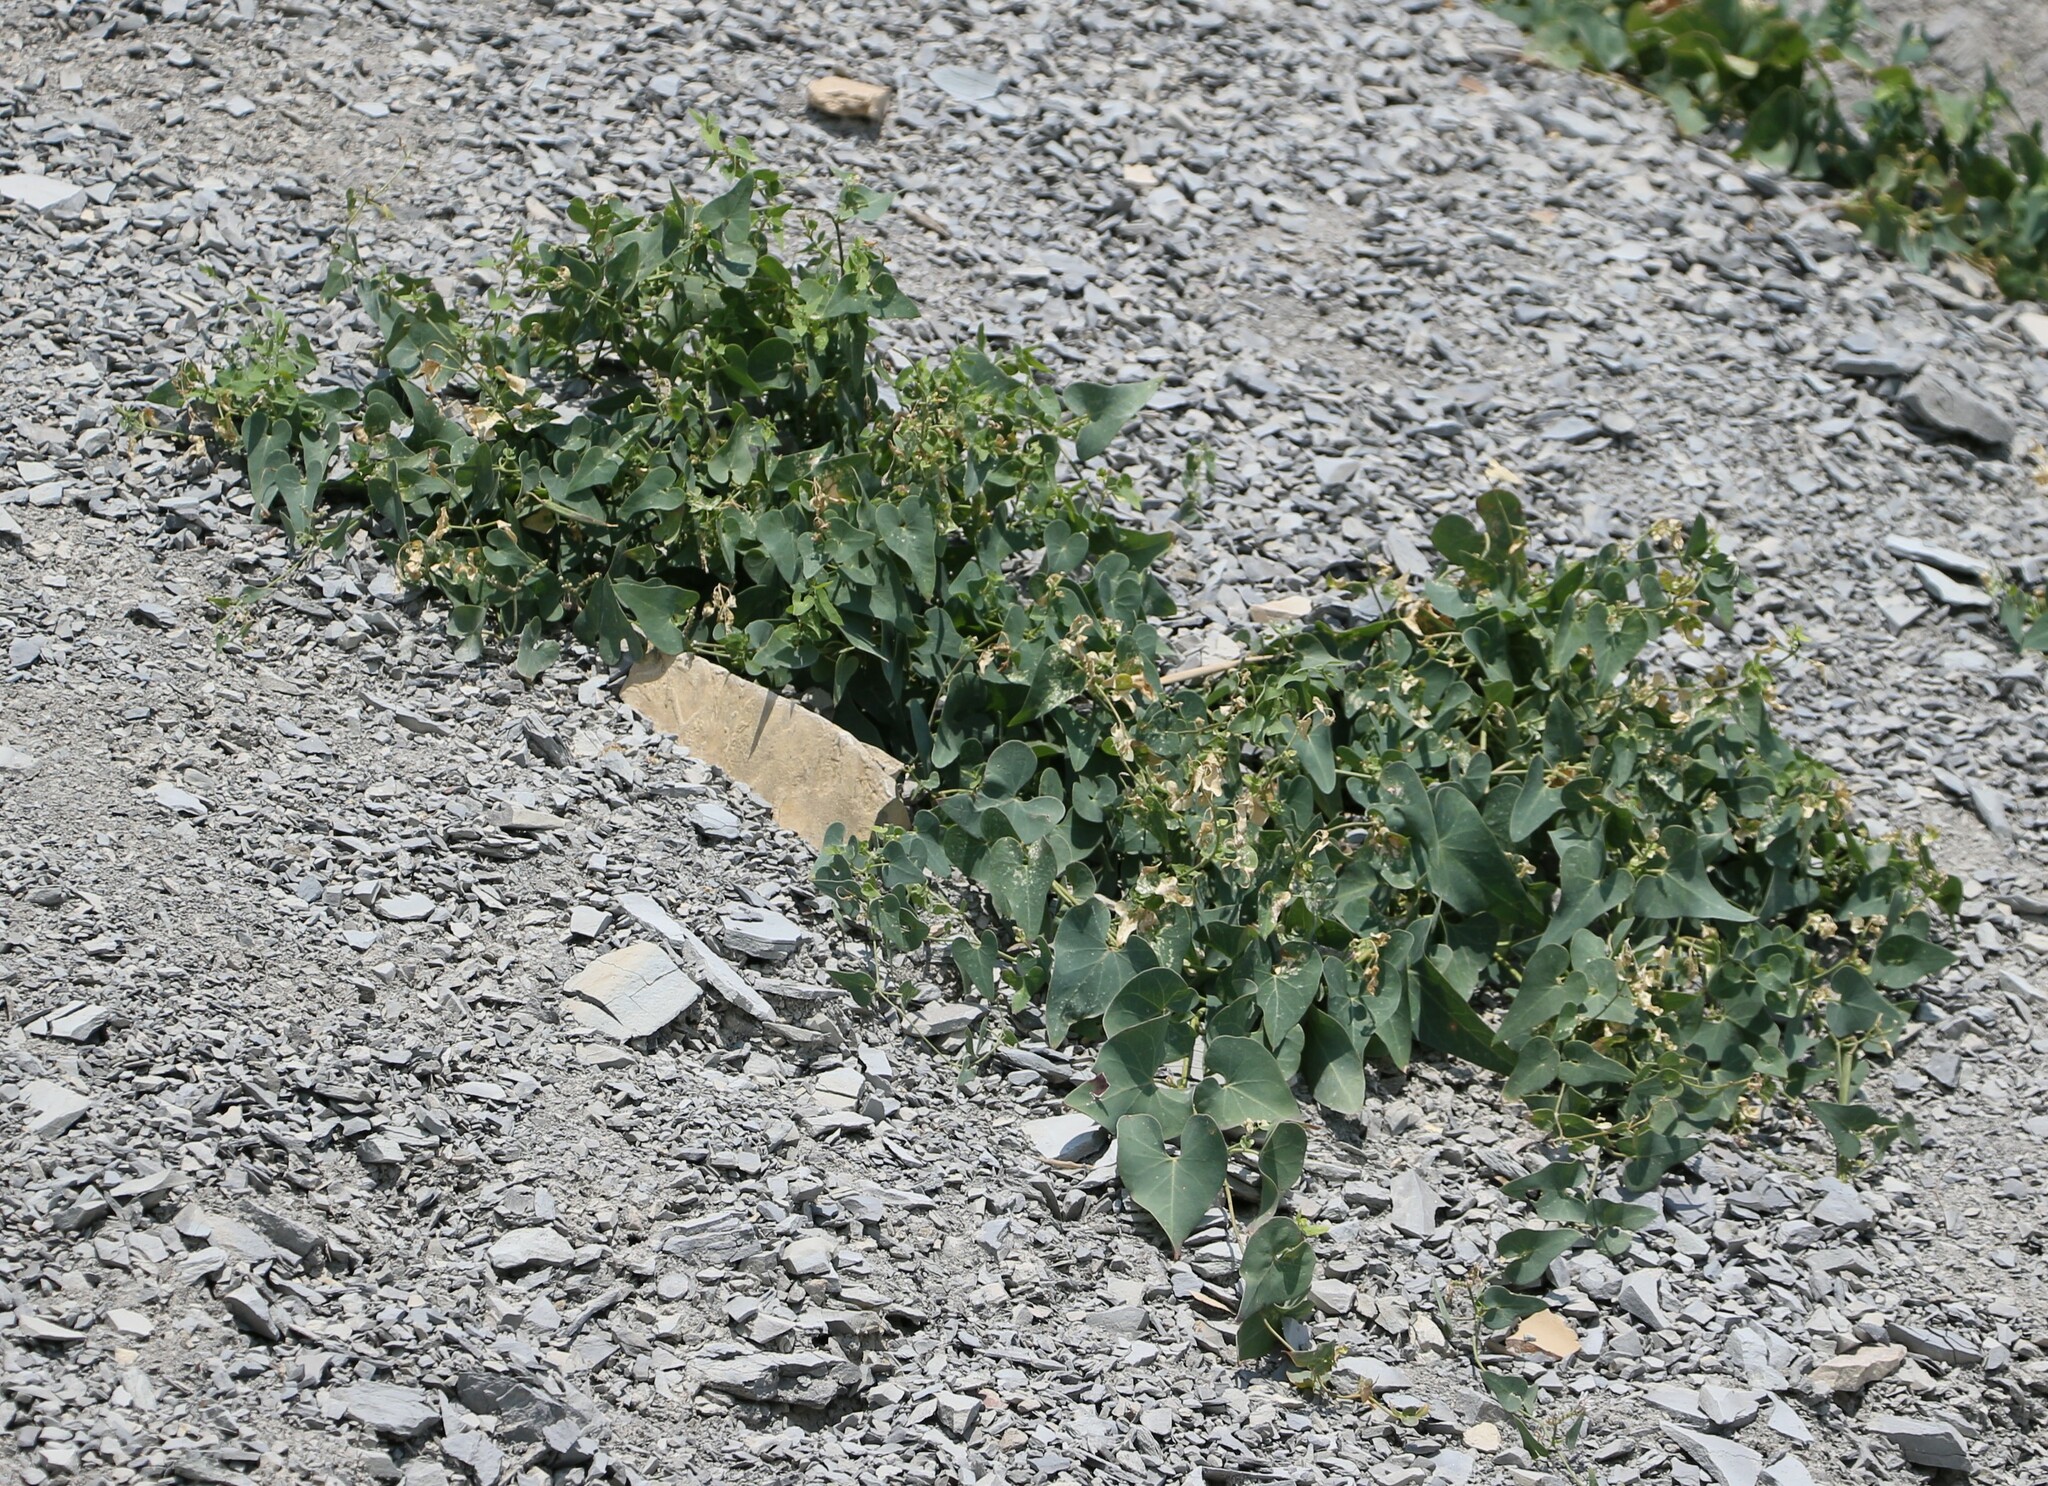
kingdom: Plantae
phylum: Tracheophyta
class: Magnoliopsida
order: Gentianales
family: Apocynaceae
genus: Cynanchum
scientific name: Cynanchum acutum
